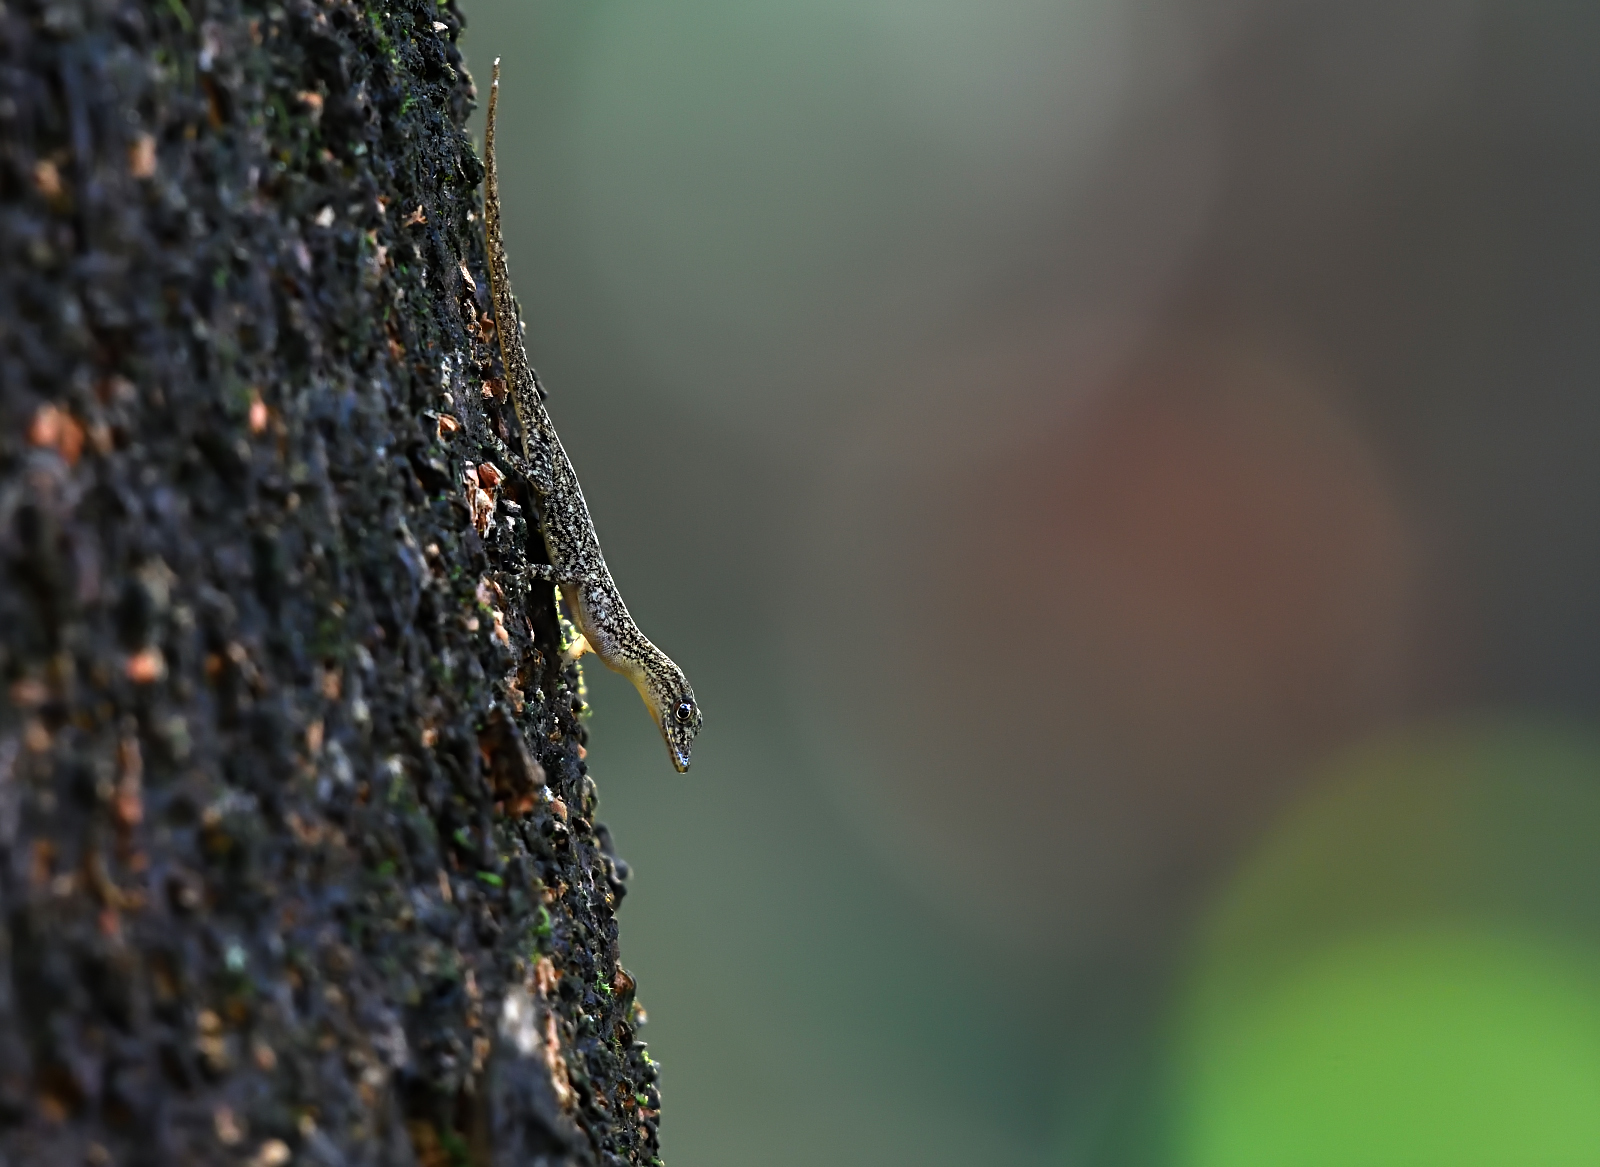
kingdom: Animalia
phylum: Chordata
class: Squamata
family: Gekkonidae
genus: Cnemaspis
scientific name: Cnemaspis littoralis
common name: Coastal day gecko
